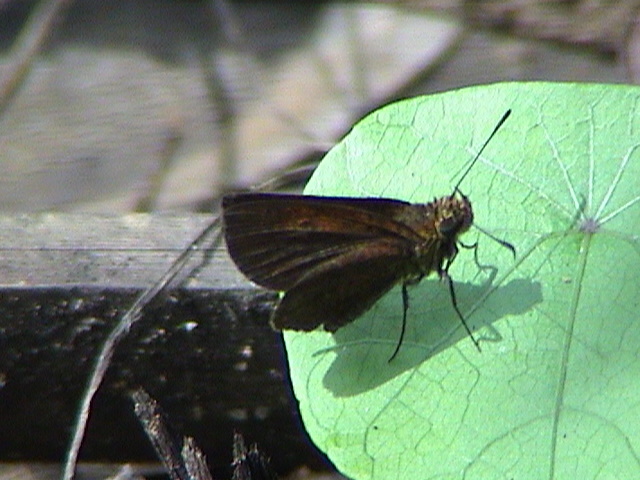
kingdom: Animalia
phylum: Arthropoda
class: Insecta
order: Lepidoptera
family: Hesperiidae
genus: Iambrix
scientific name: Iambrix salsala
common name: Chestnut bob
